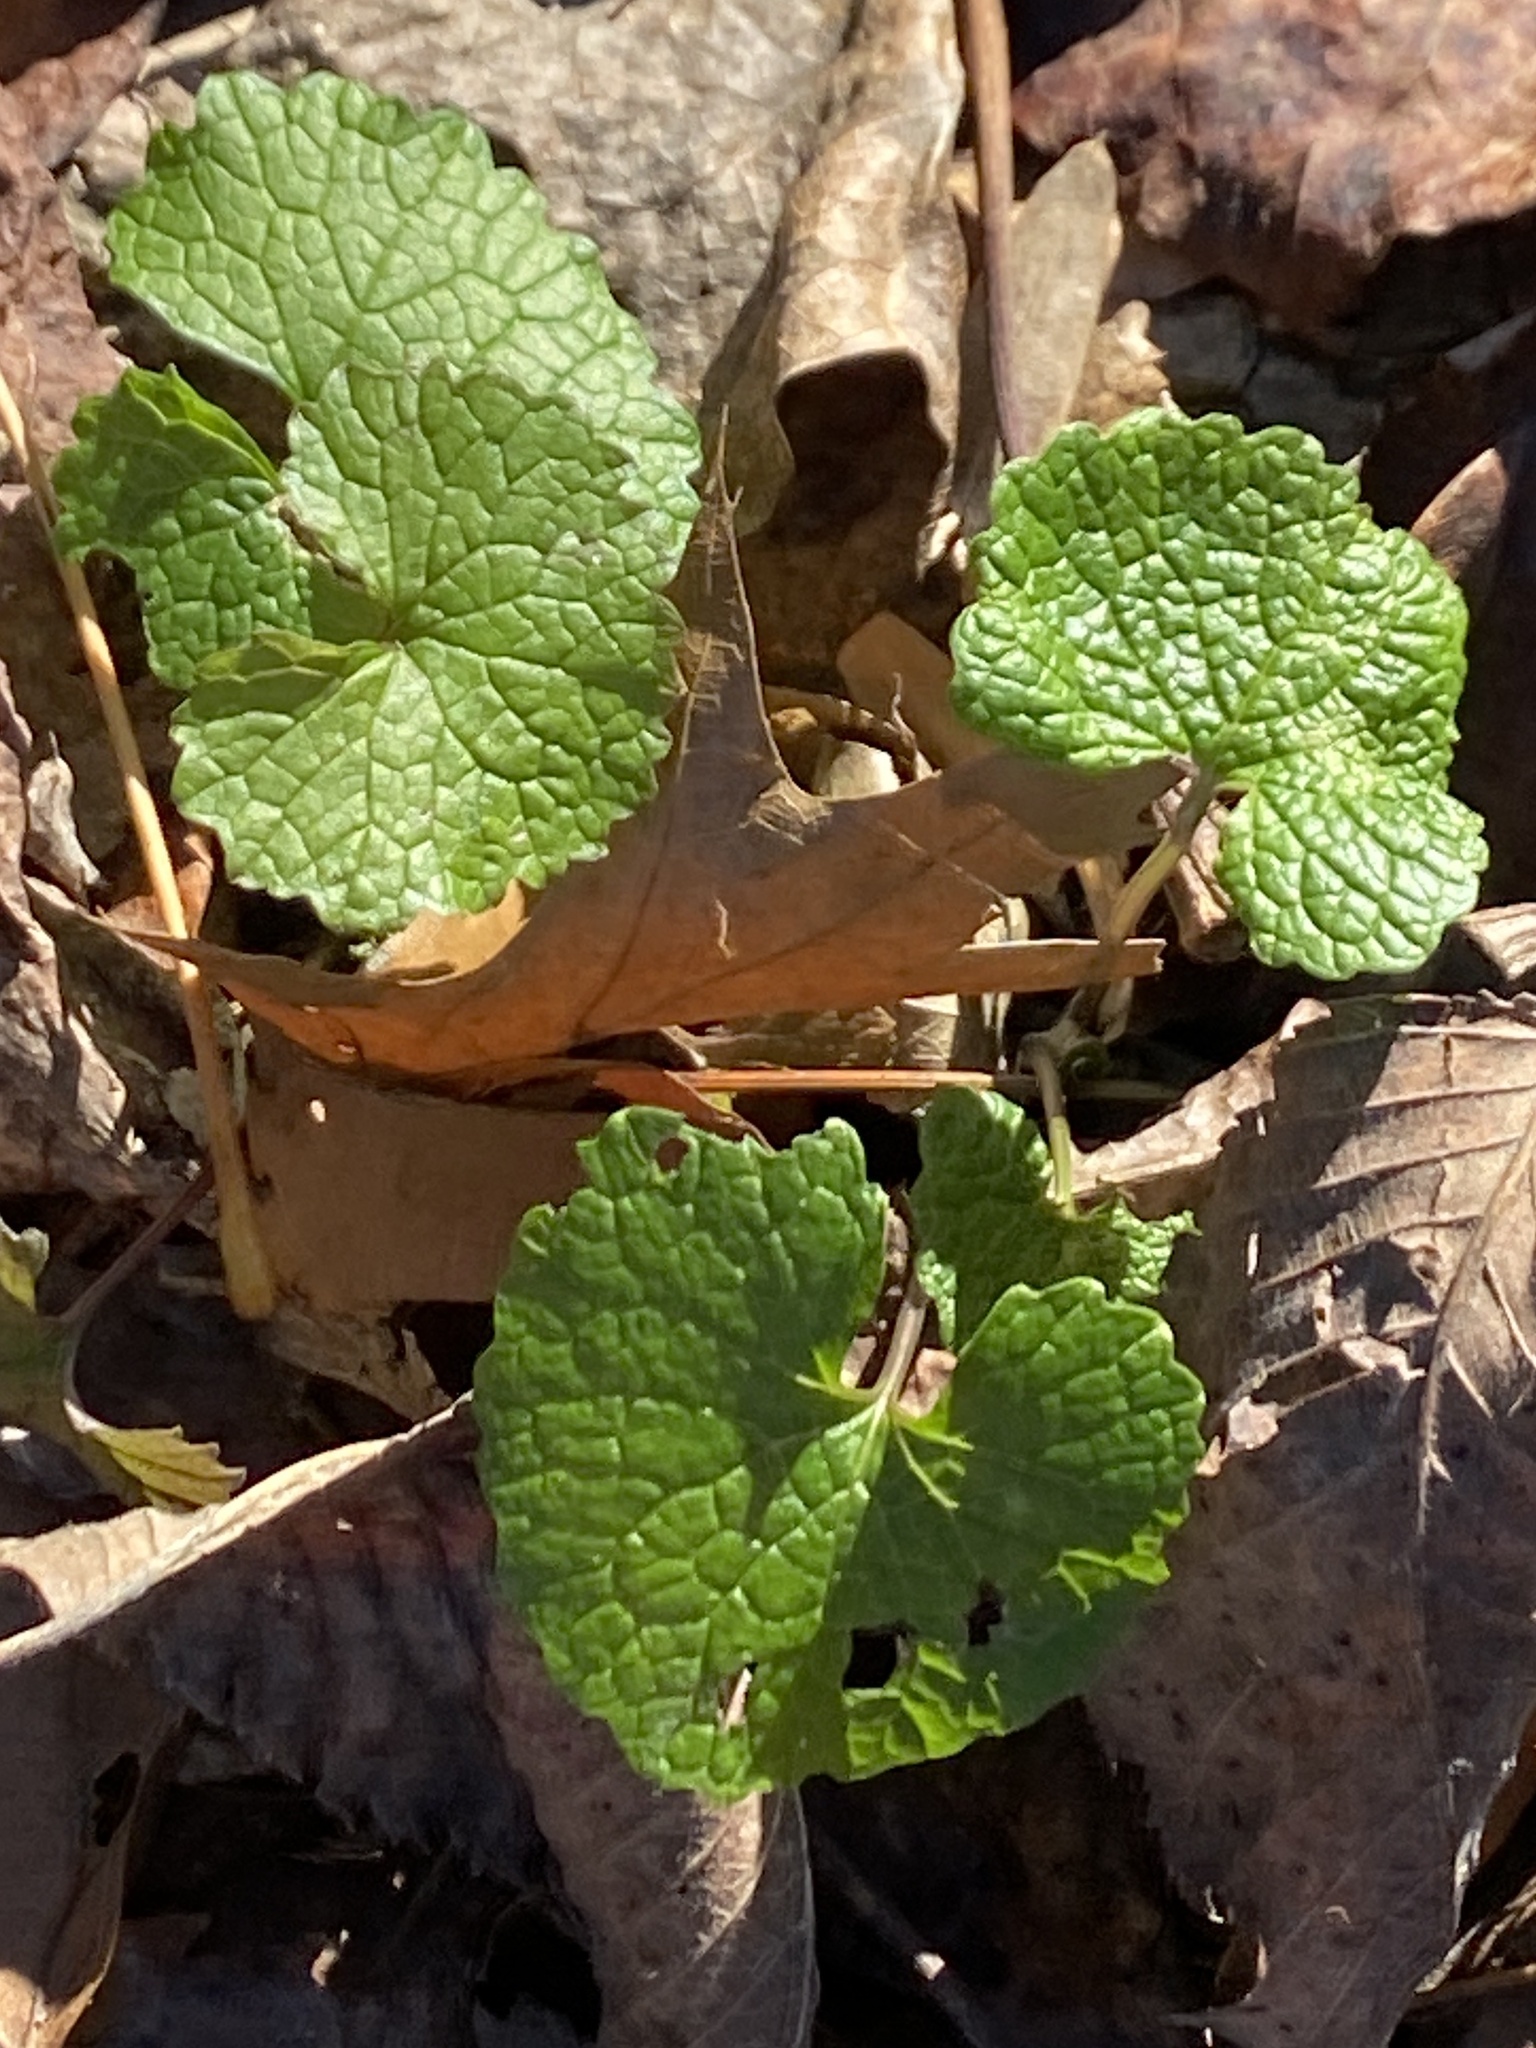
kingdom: Plantae
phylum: Tracheophyta
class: Magnoliopsida
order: Brassicales
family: Brassicaceae
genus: Alliaria
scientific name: Alliaria petiolata
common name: Garlic mustard
